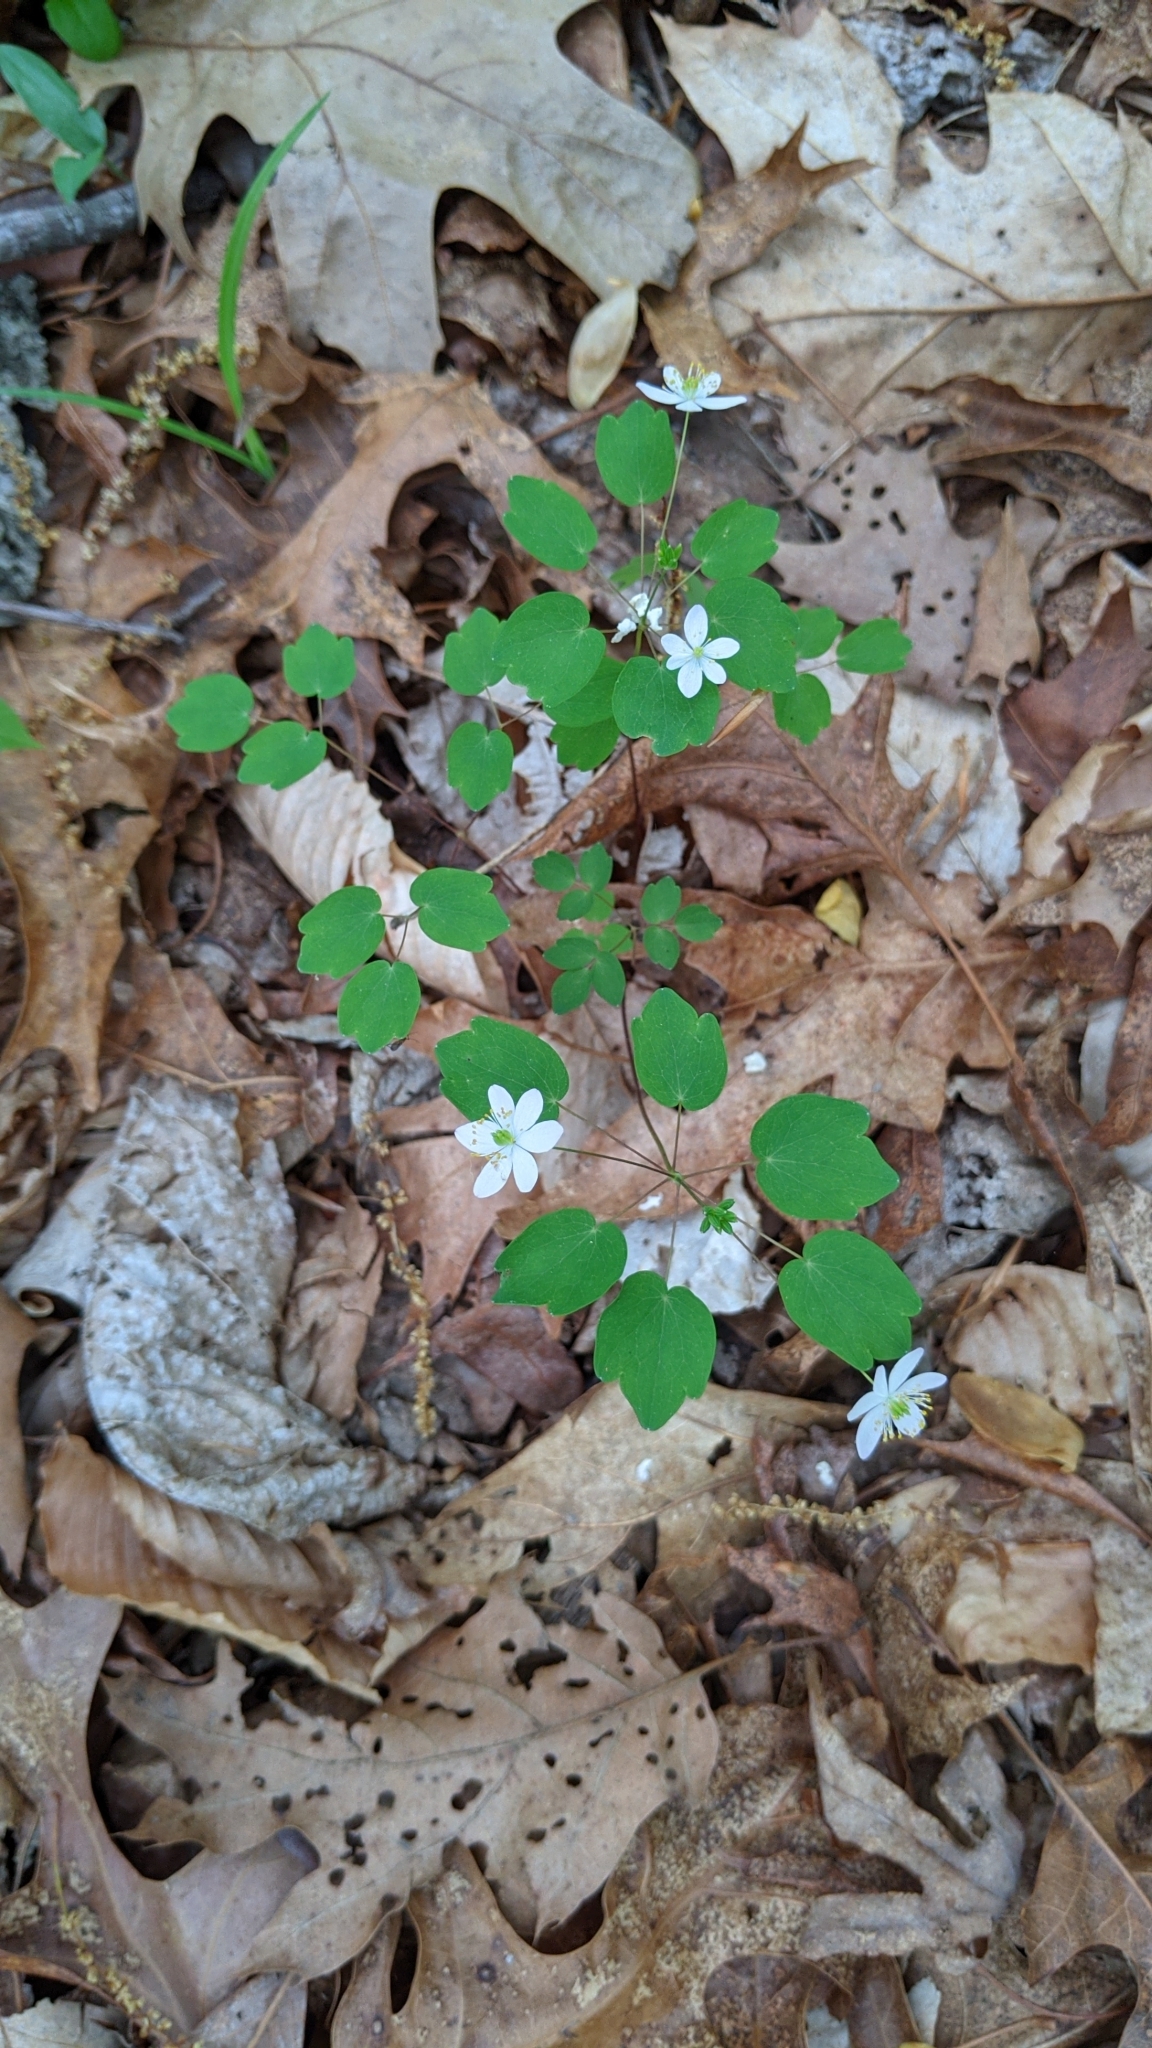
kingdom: Plantae
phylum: Tracheophyta
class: Magnoliopsida
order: Ranunculales
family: Ranunculaceae
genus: Thalictrum
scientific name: Thalictrum thalictroides
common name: Rue-anemone
